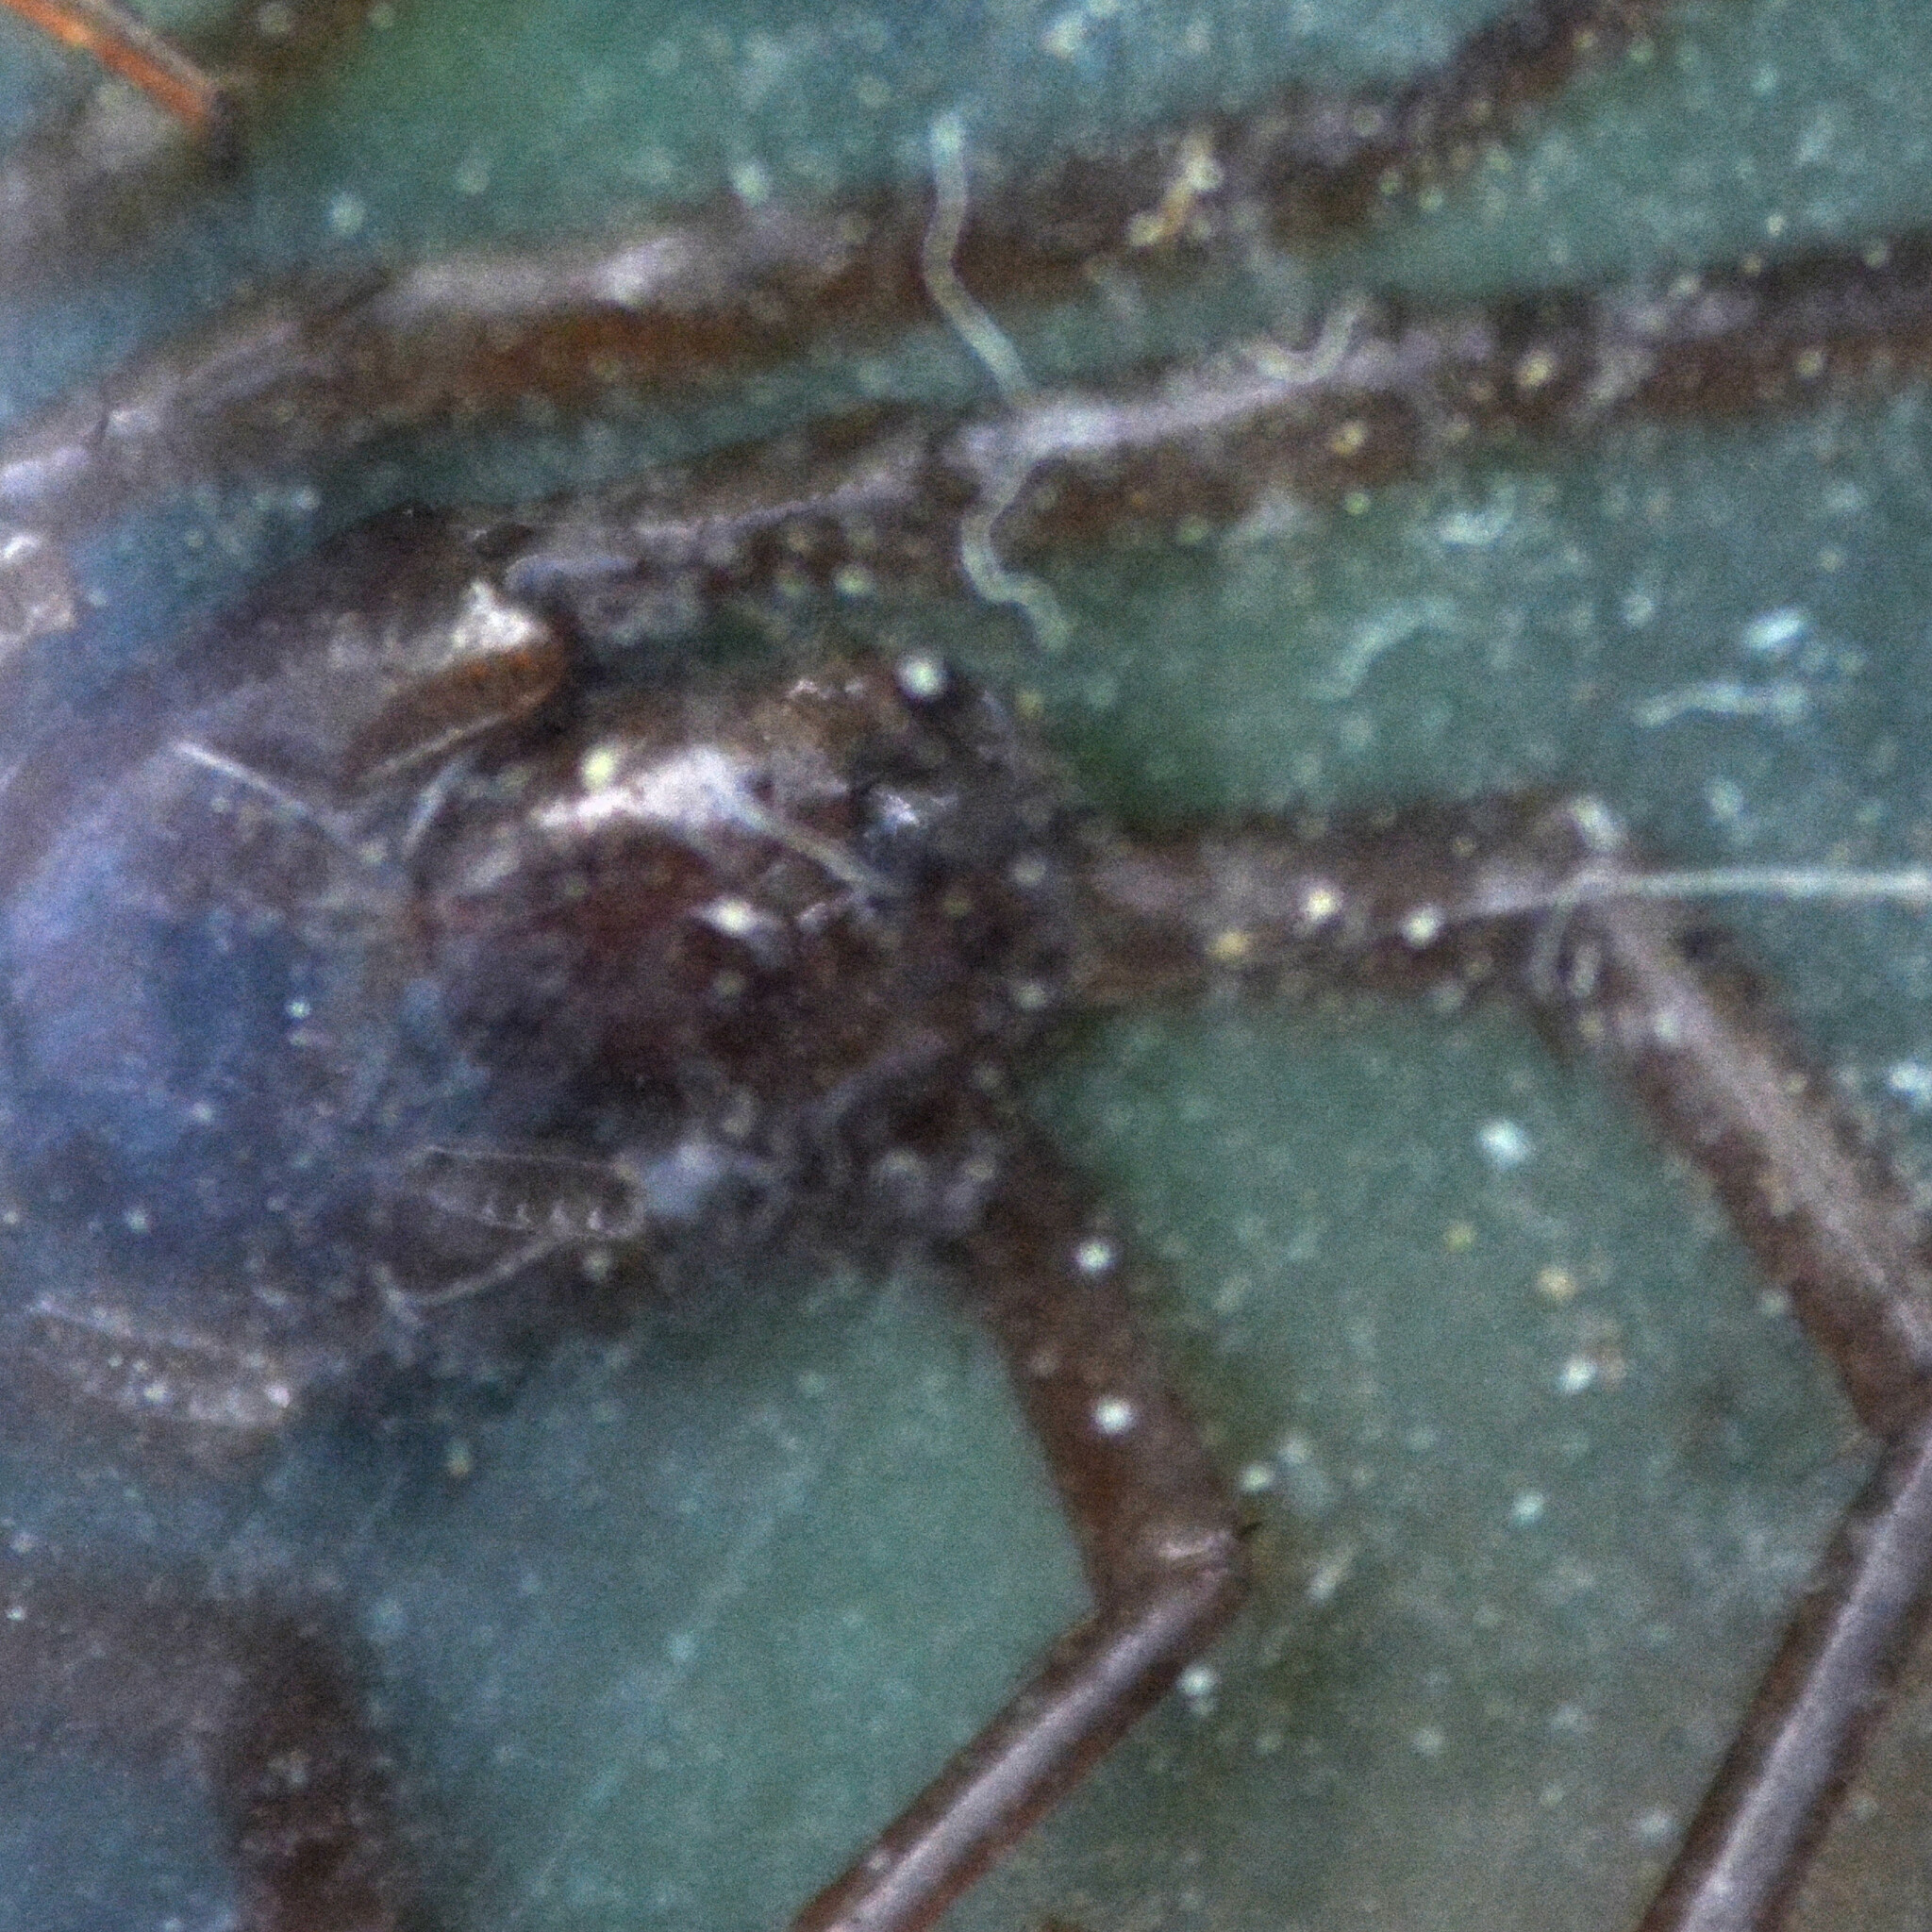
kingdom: Animalia
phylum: Arthropoda
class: Chilopoda
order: Lithobiomorpha
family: Lithobiidae
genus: Lithobius
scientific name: Lithobius forficatus
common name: Centipede
